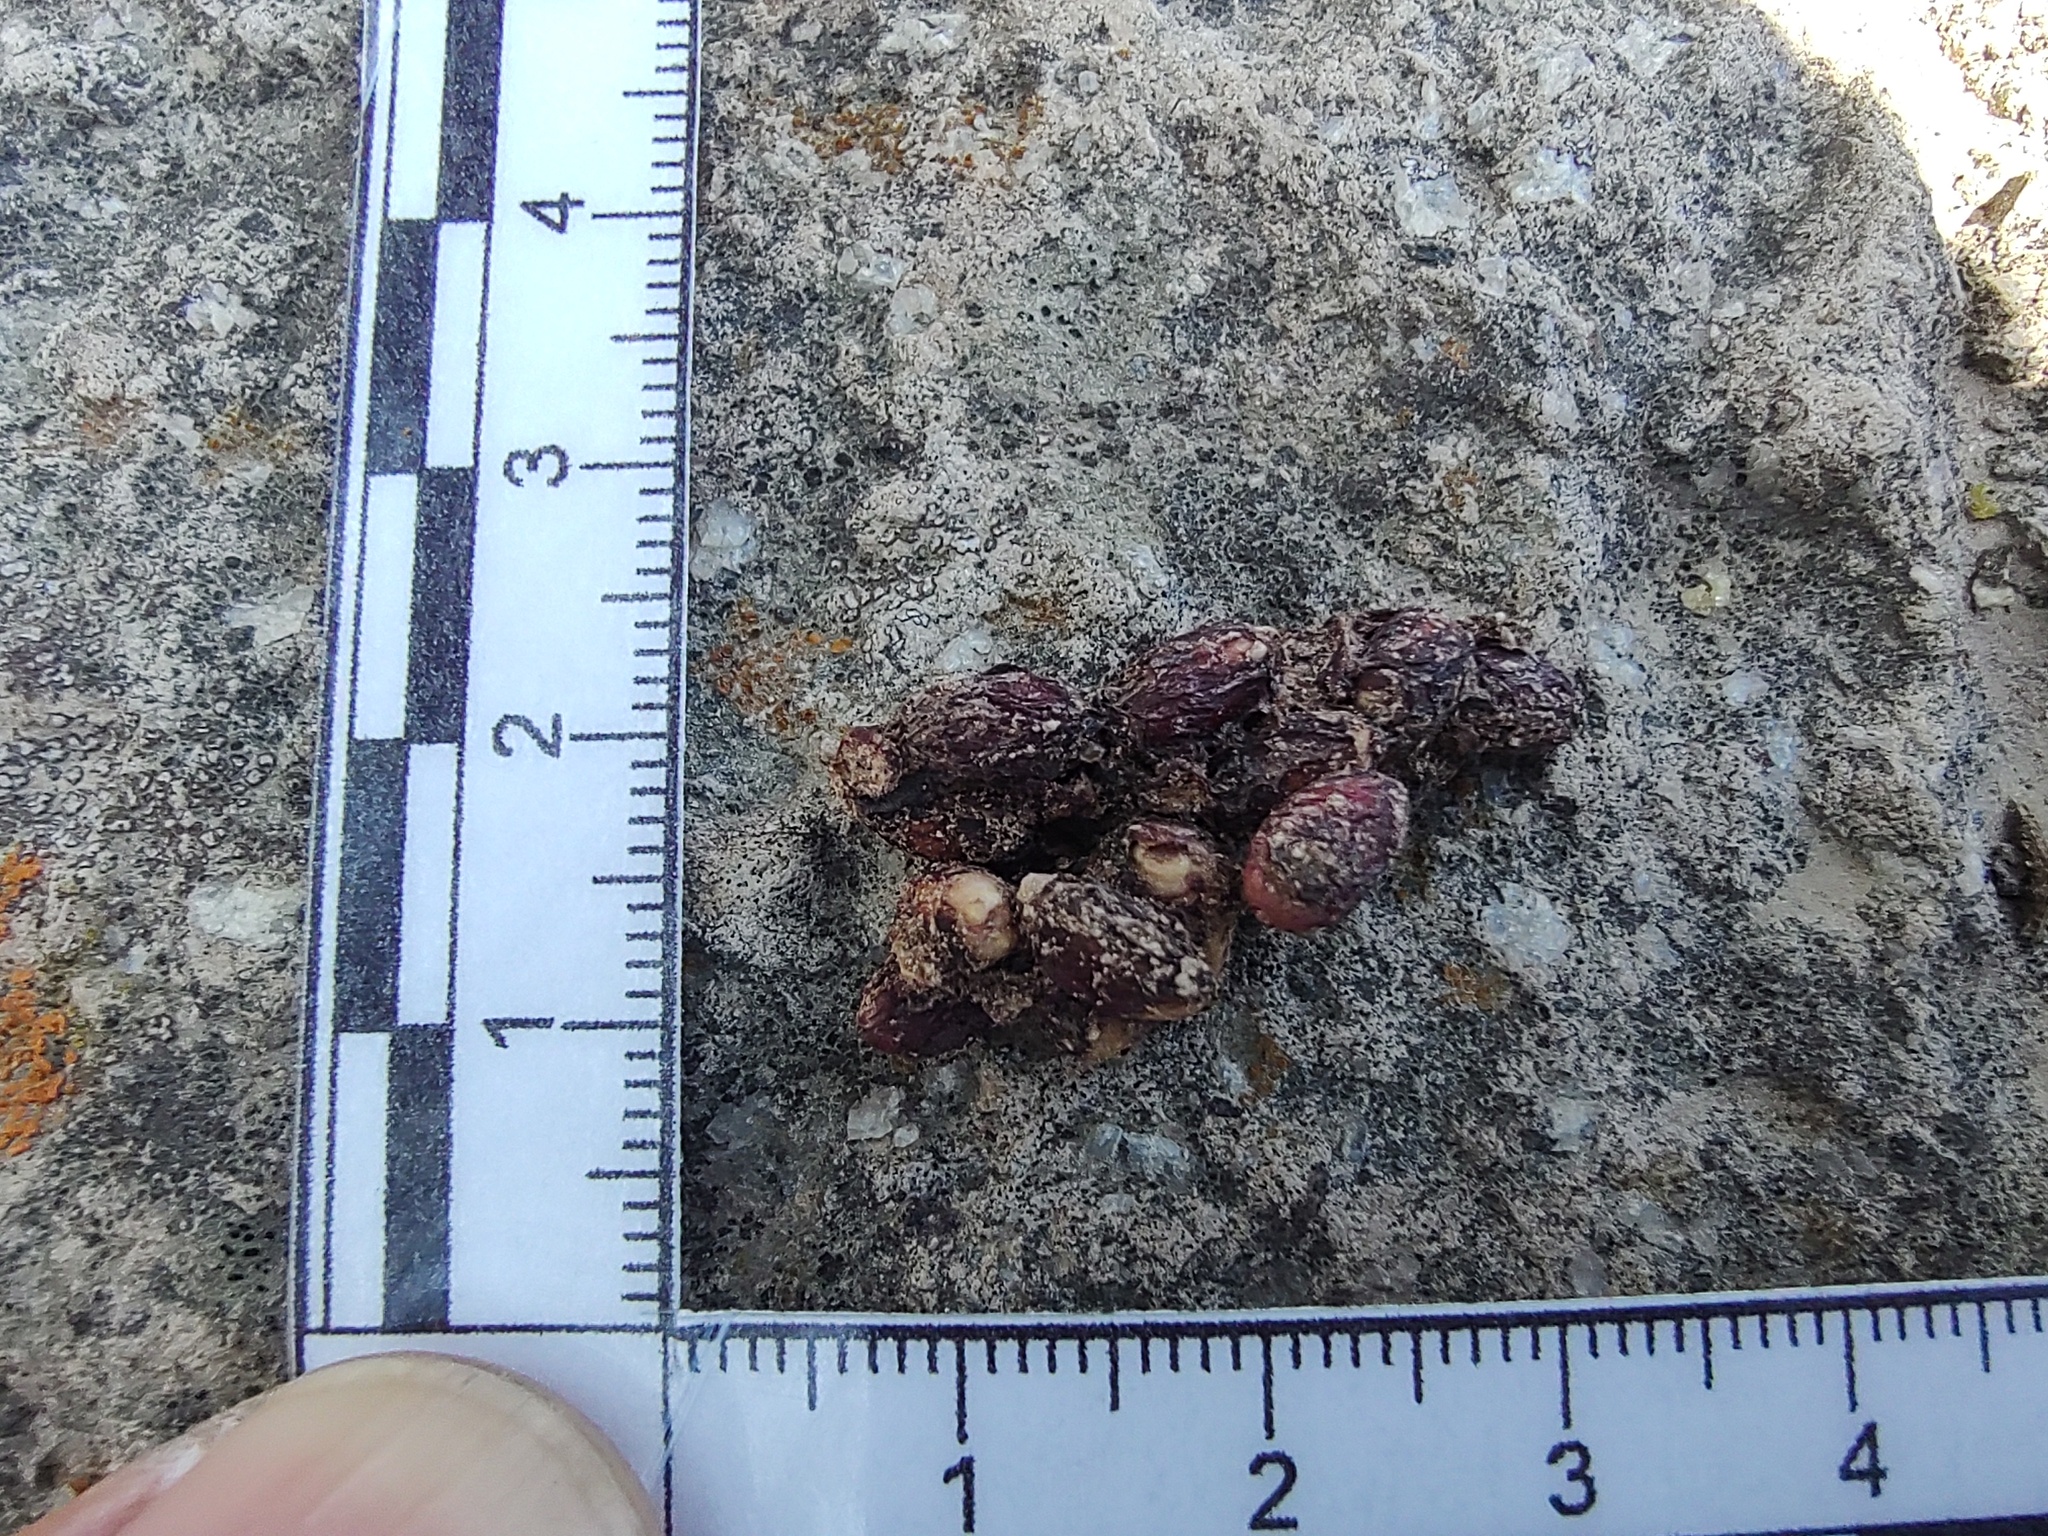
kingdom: Animalia
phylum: Chordata
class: Mammalia
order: Carnivora
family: Procyonidae
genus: Bassariscus
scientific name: Bassariscus astutus
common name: Ringtail
